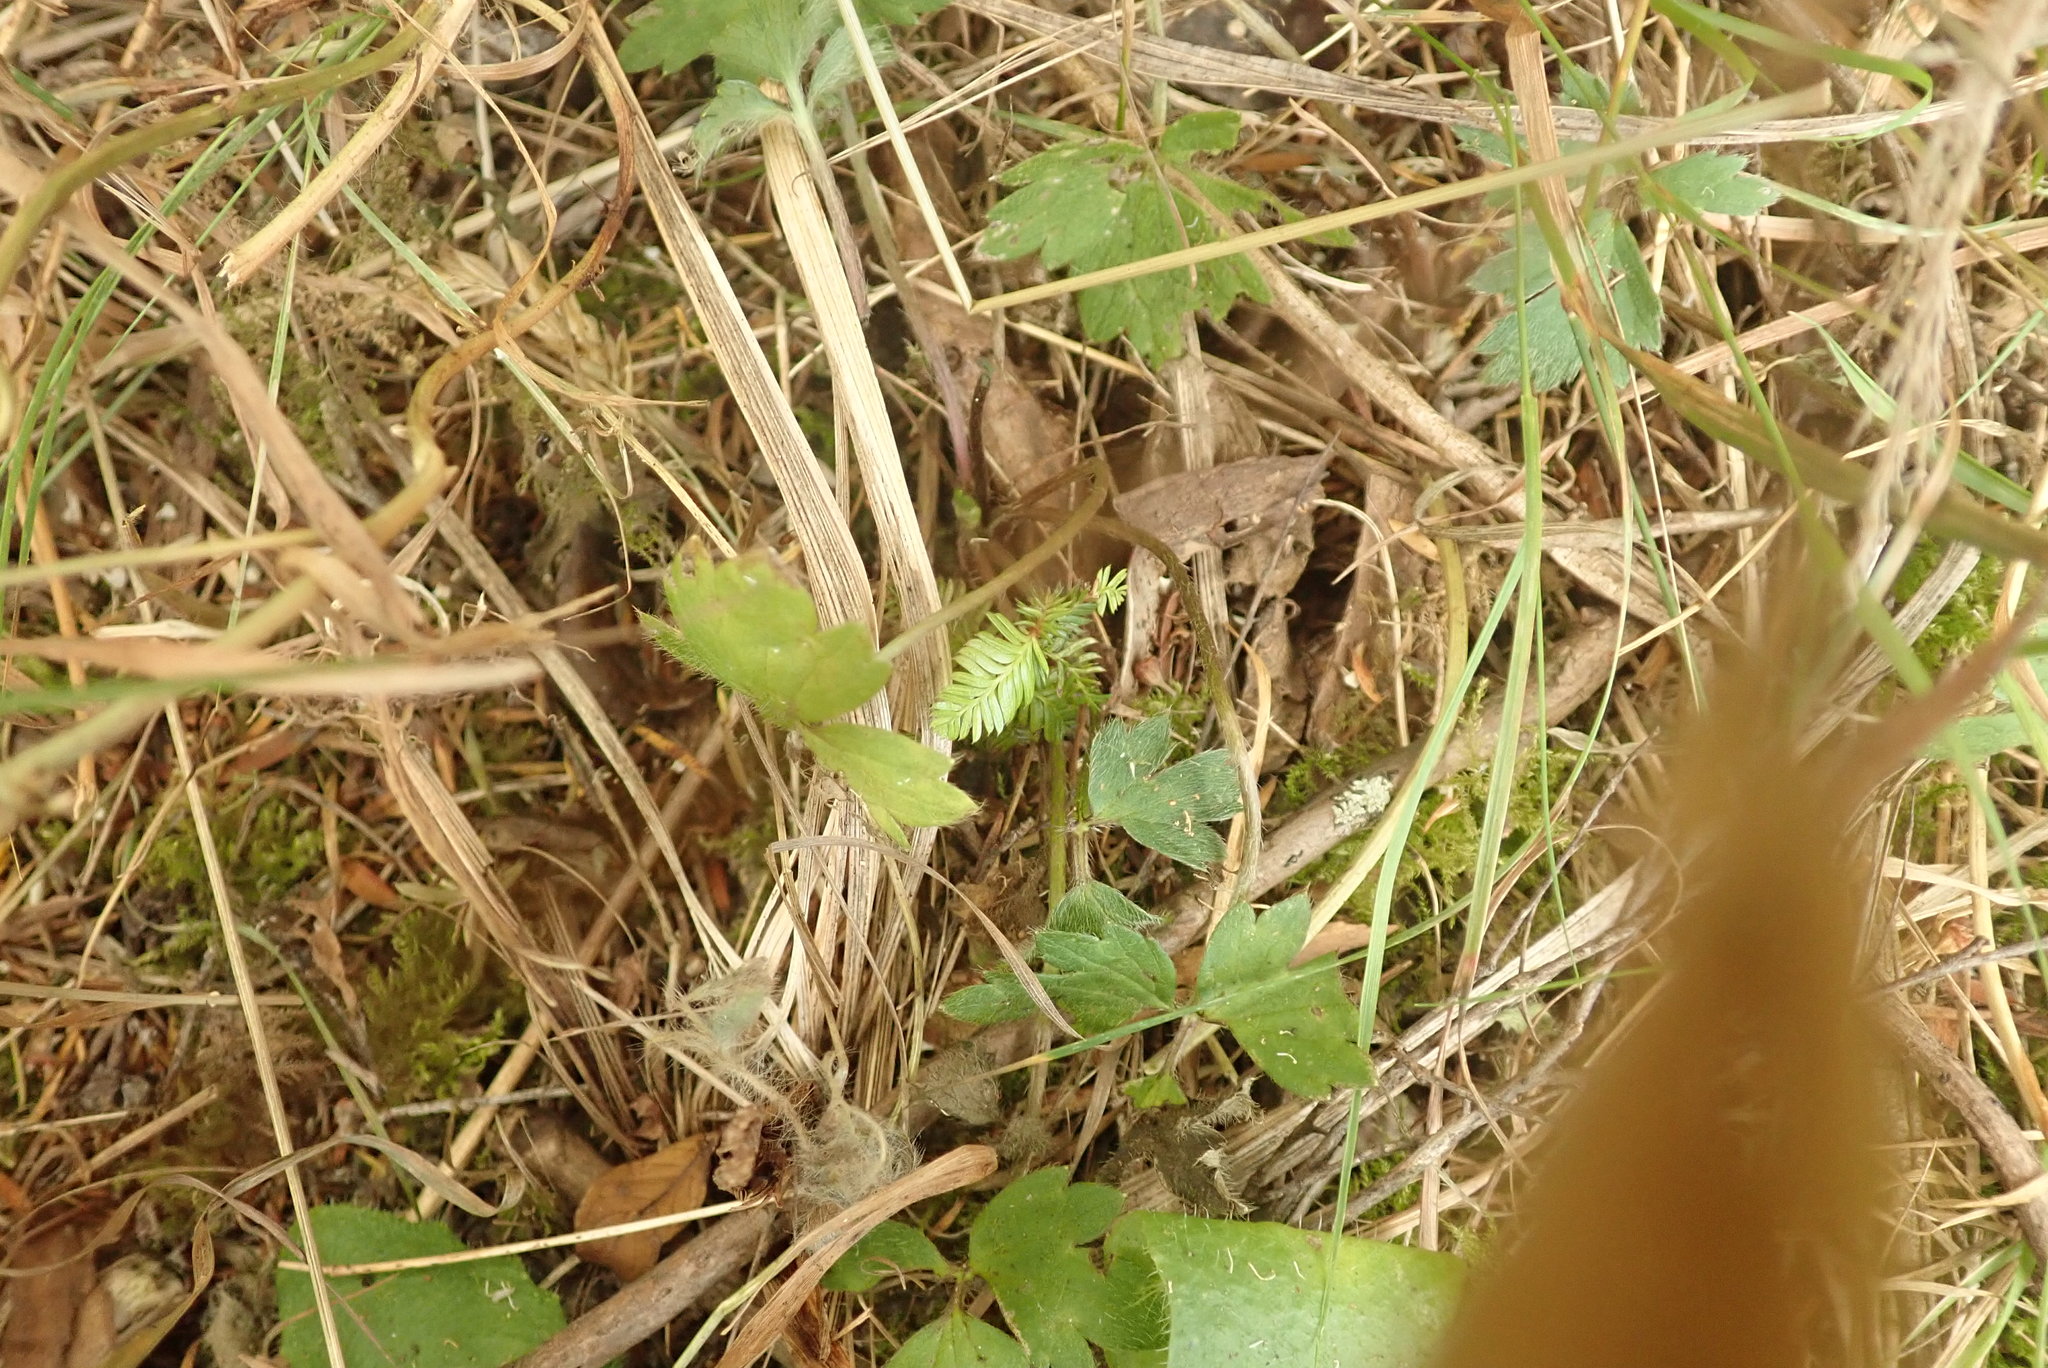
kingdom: Plantae
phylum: Tracheophyta
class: Pinopsida
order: Pinales
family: Podocarpaceae
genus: Dacrycarpus
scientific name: Dacrycarpus dacrydioides
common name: White pine
